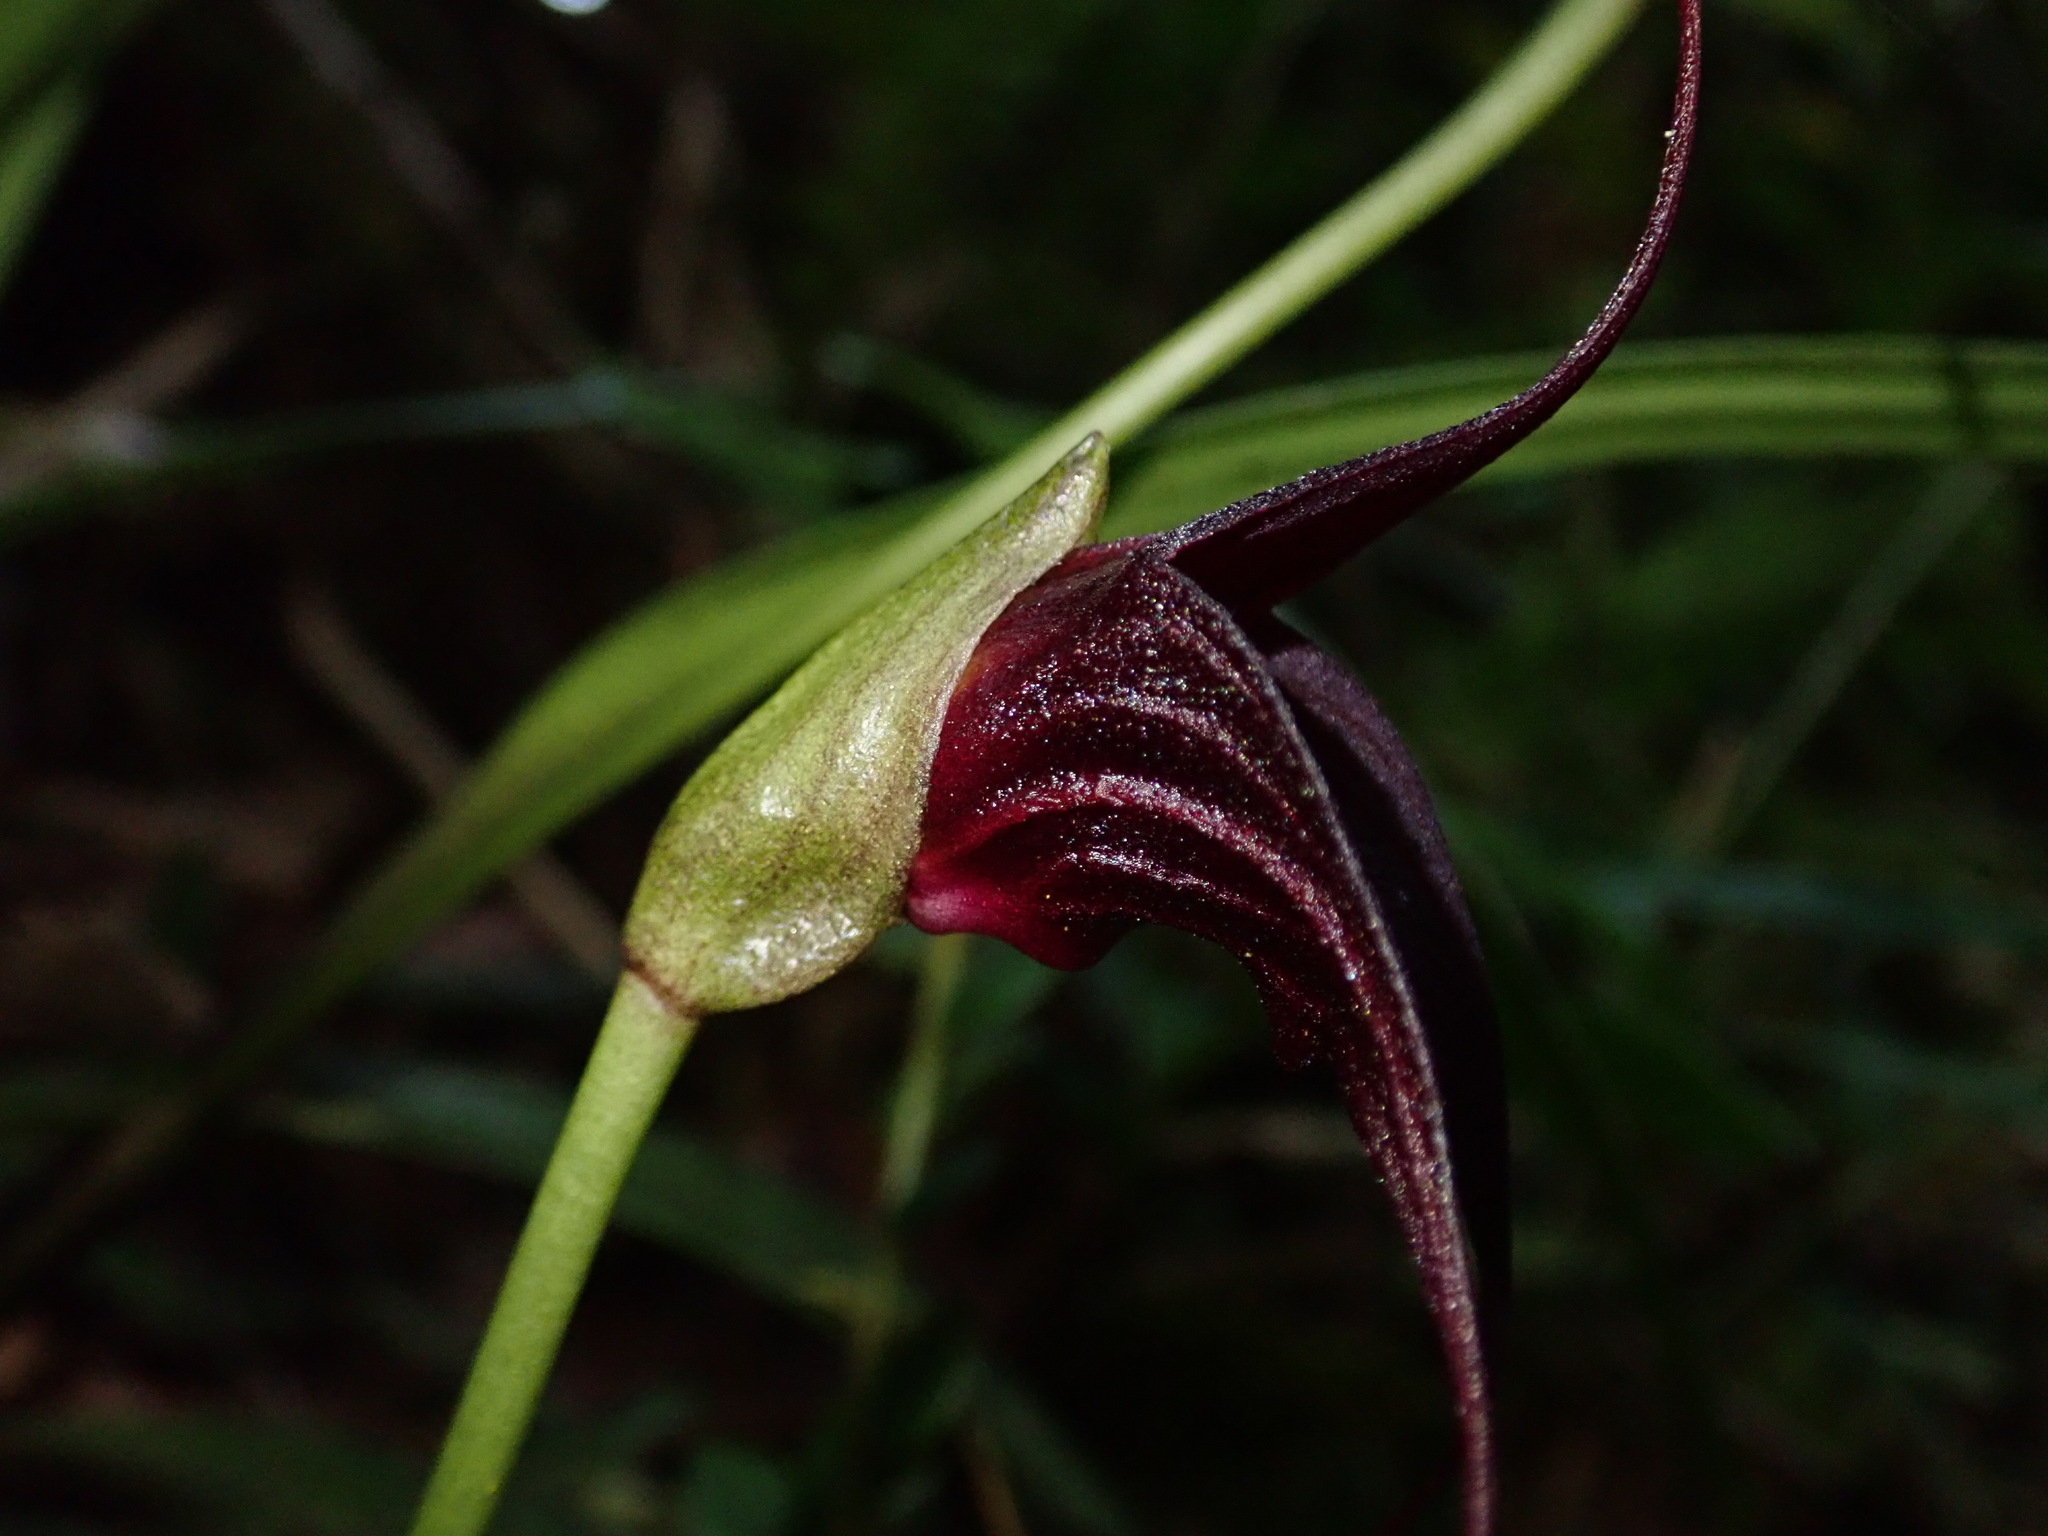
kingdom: Plantae
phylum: Tracheophyta
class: Liliopsida
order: Asparagales
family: Orchidaceae
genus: Masdevallia
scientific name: Masdevallia cucullata
